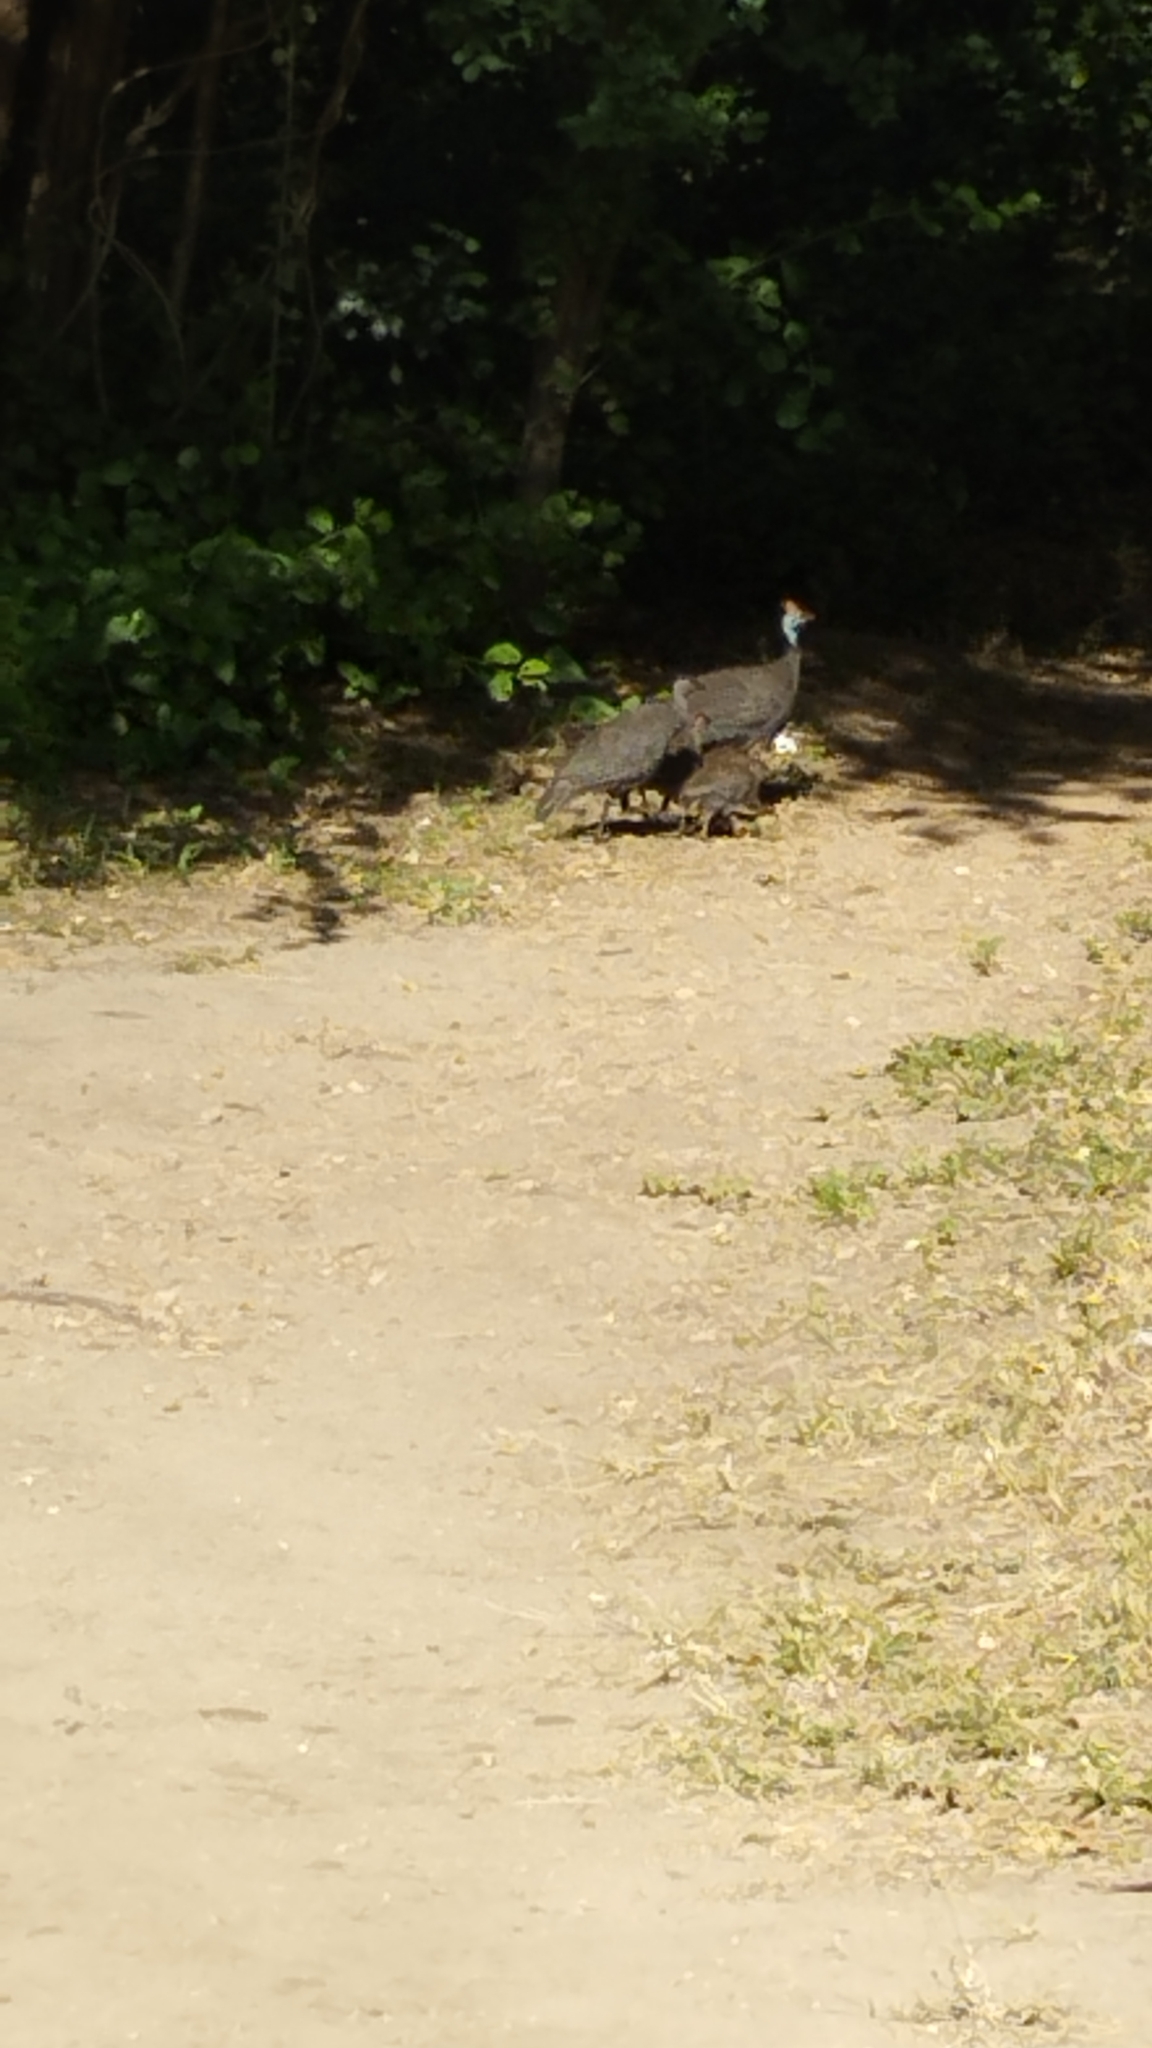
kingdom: Animalia
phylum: Chordata
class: Aves
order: Galliformes
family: Numididae
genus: Numida
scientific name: Numida meleagris
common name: Helmeted guineafowl
